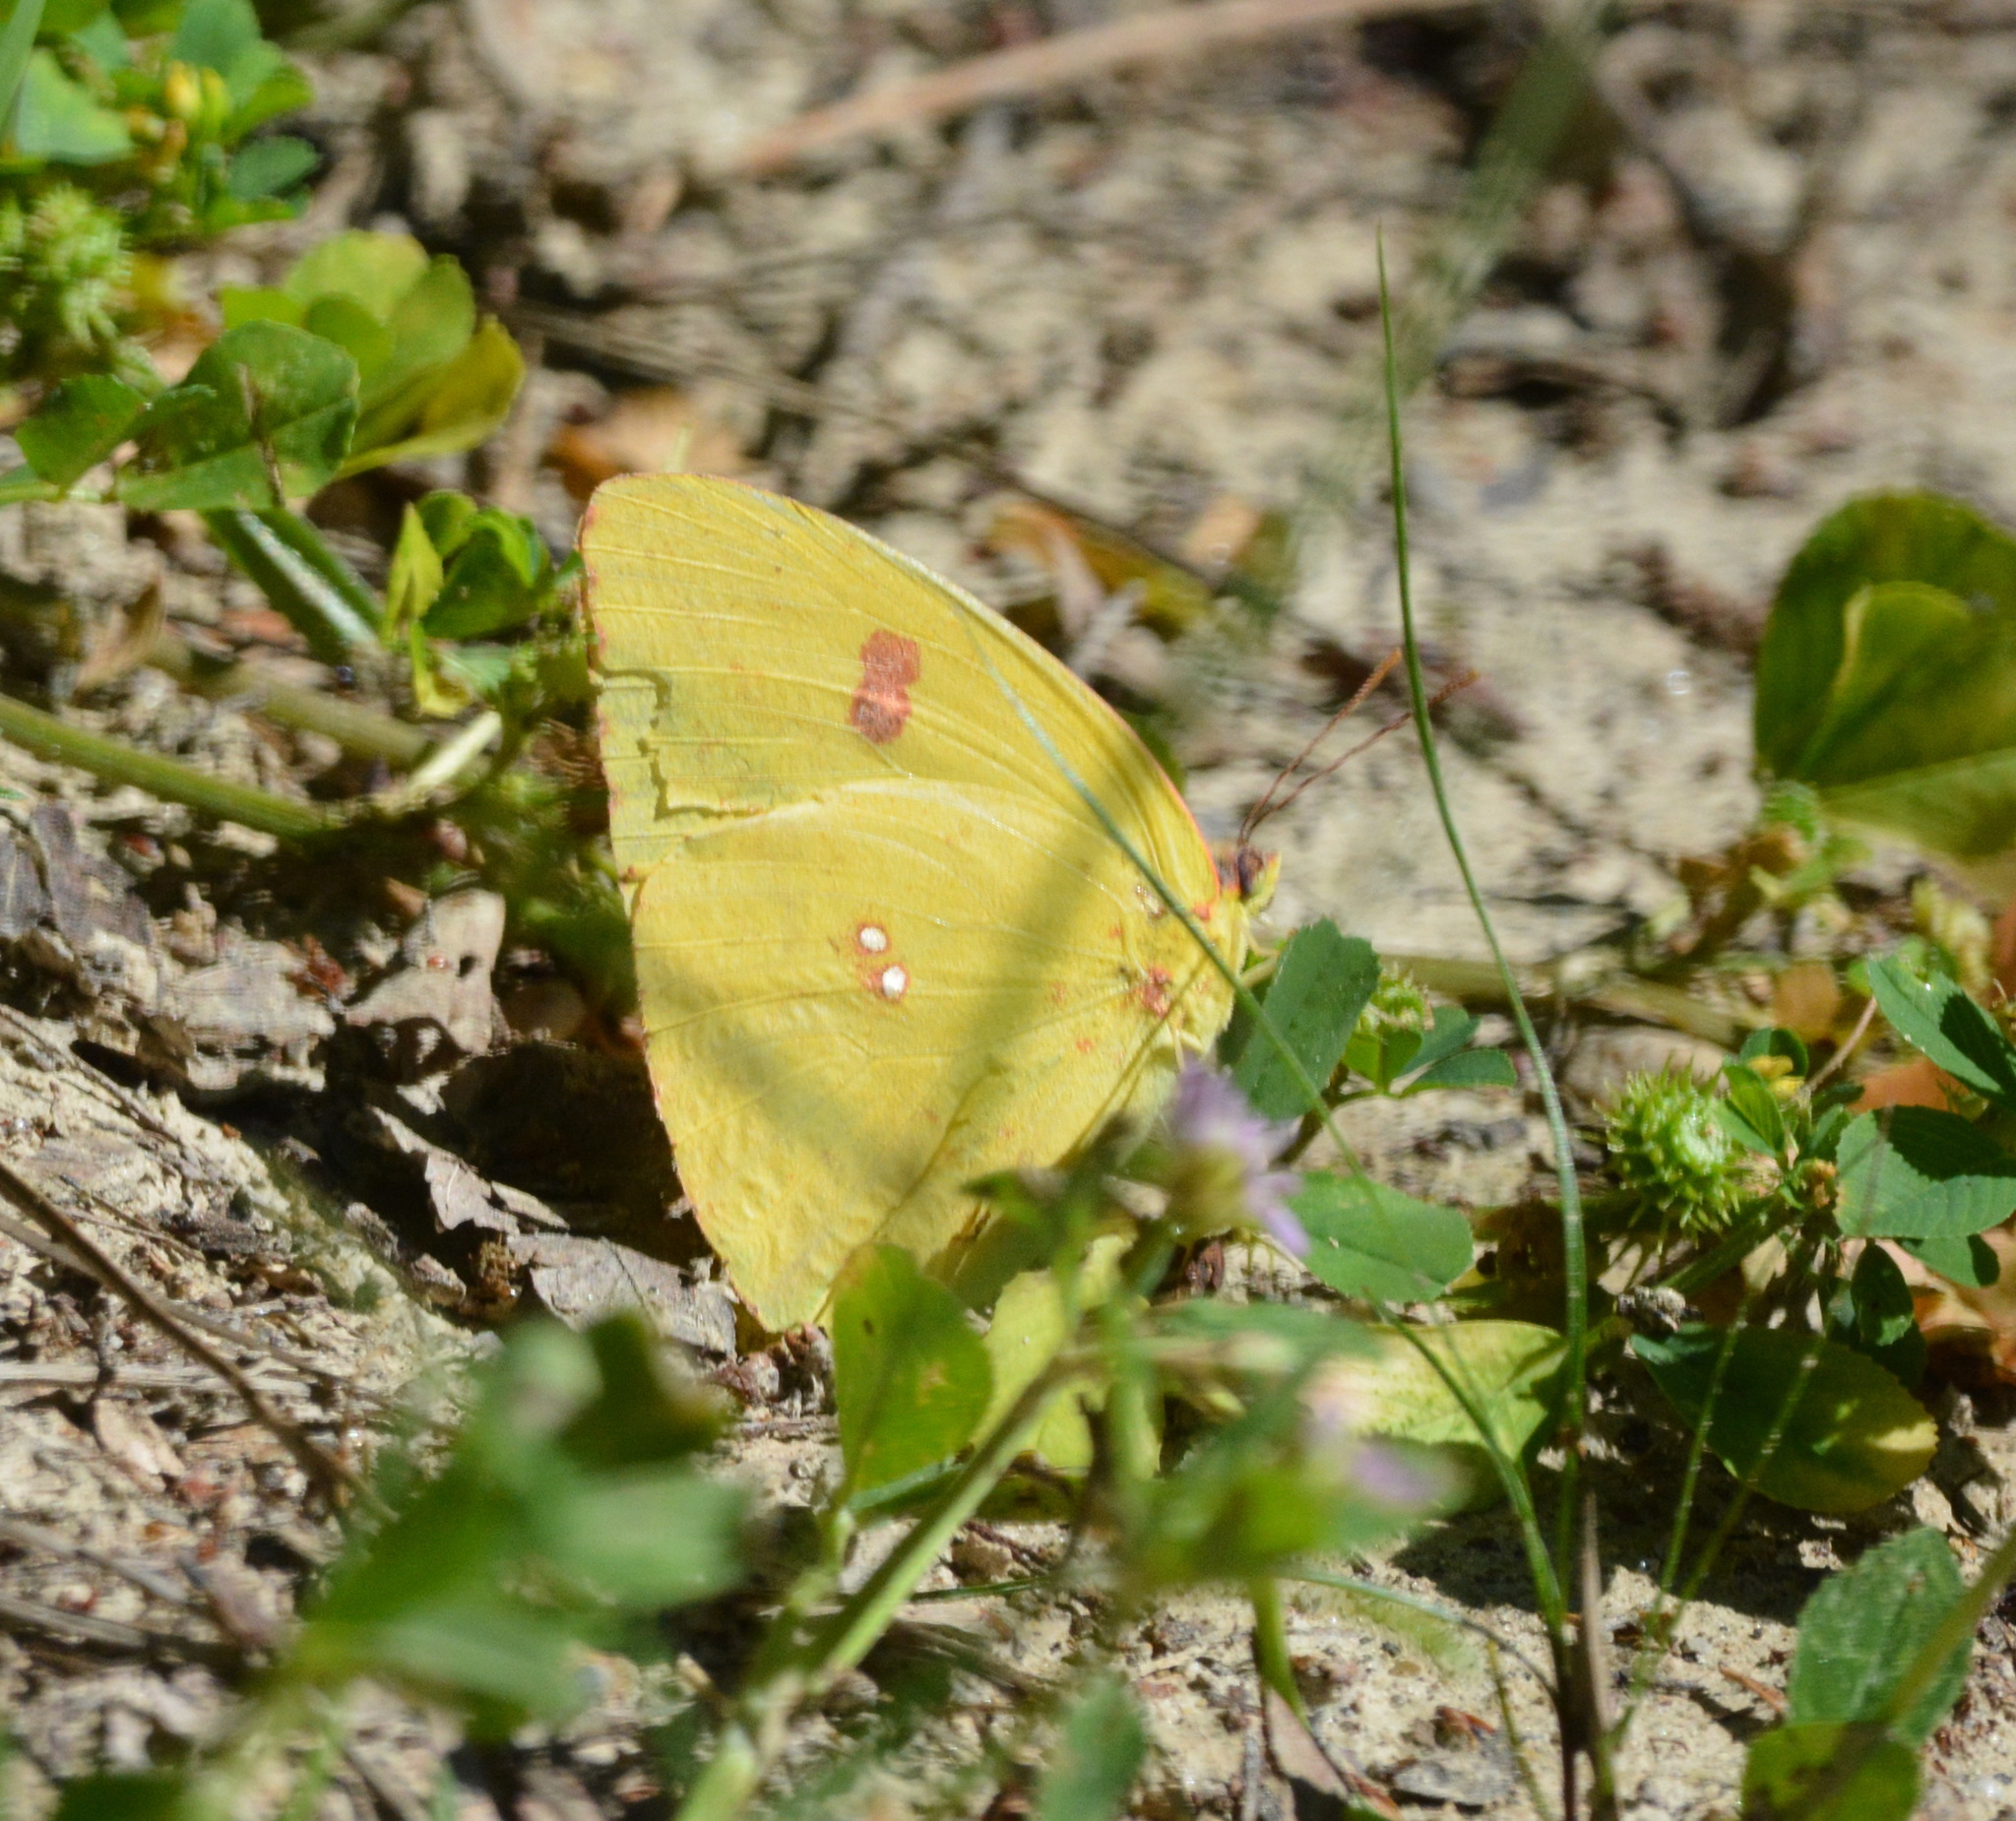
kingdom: Animalia
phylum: Arthropoda
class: Insecta
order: Lepidoptera
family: Pieridae
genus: Phoebis
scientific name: Phoebis sennae
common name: Cloudless sulphur
